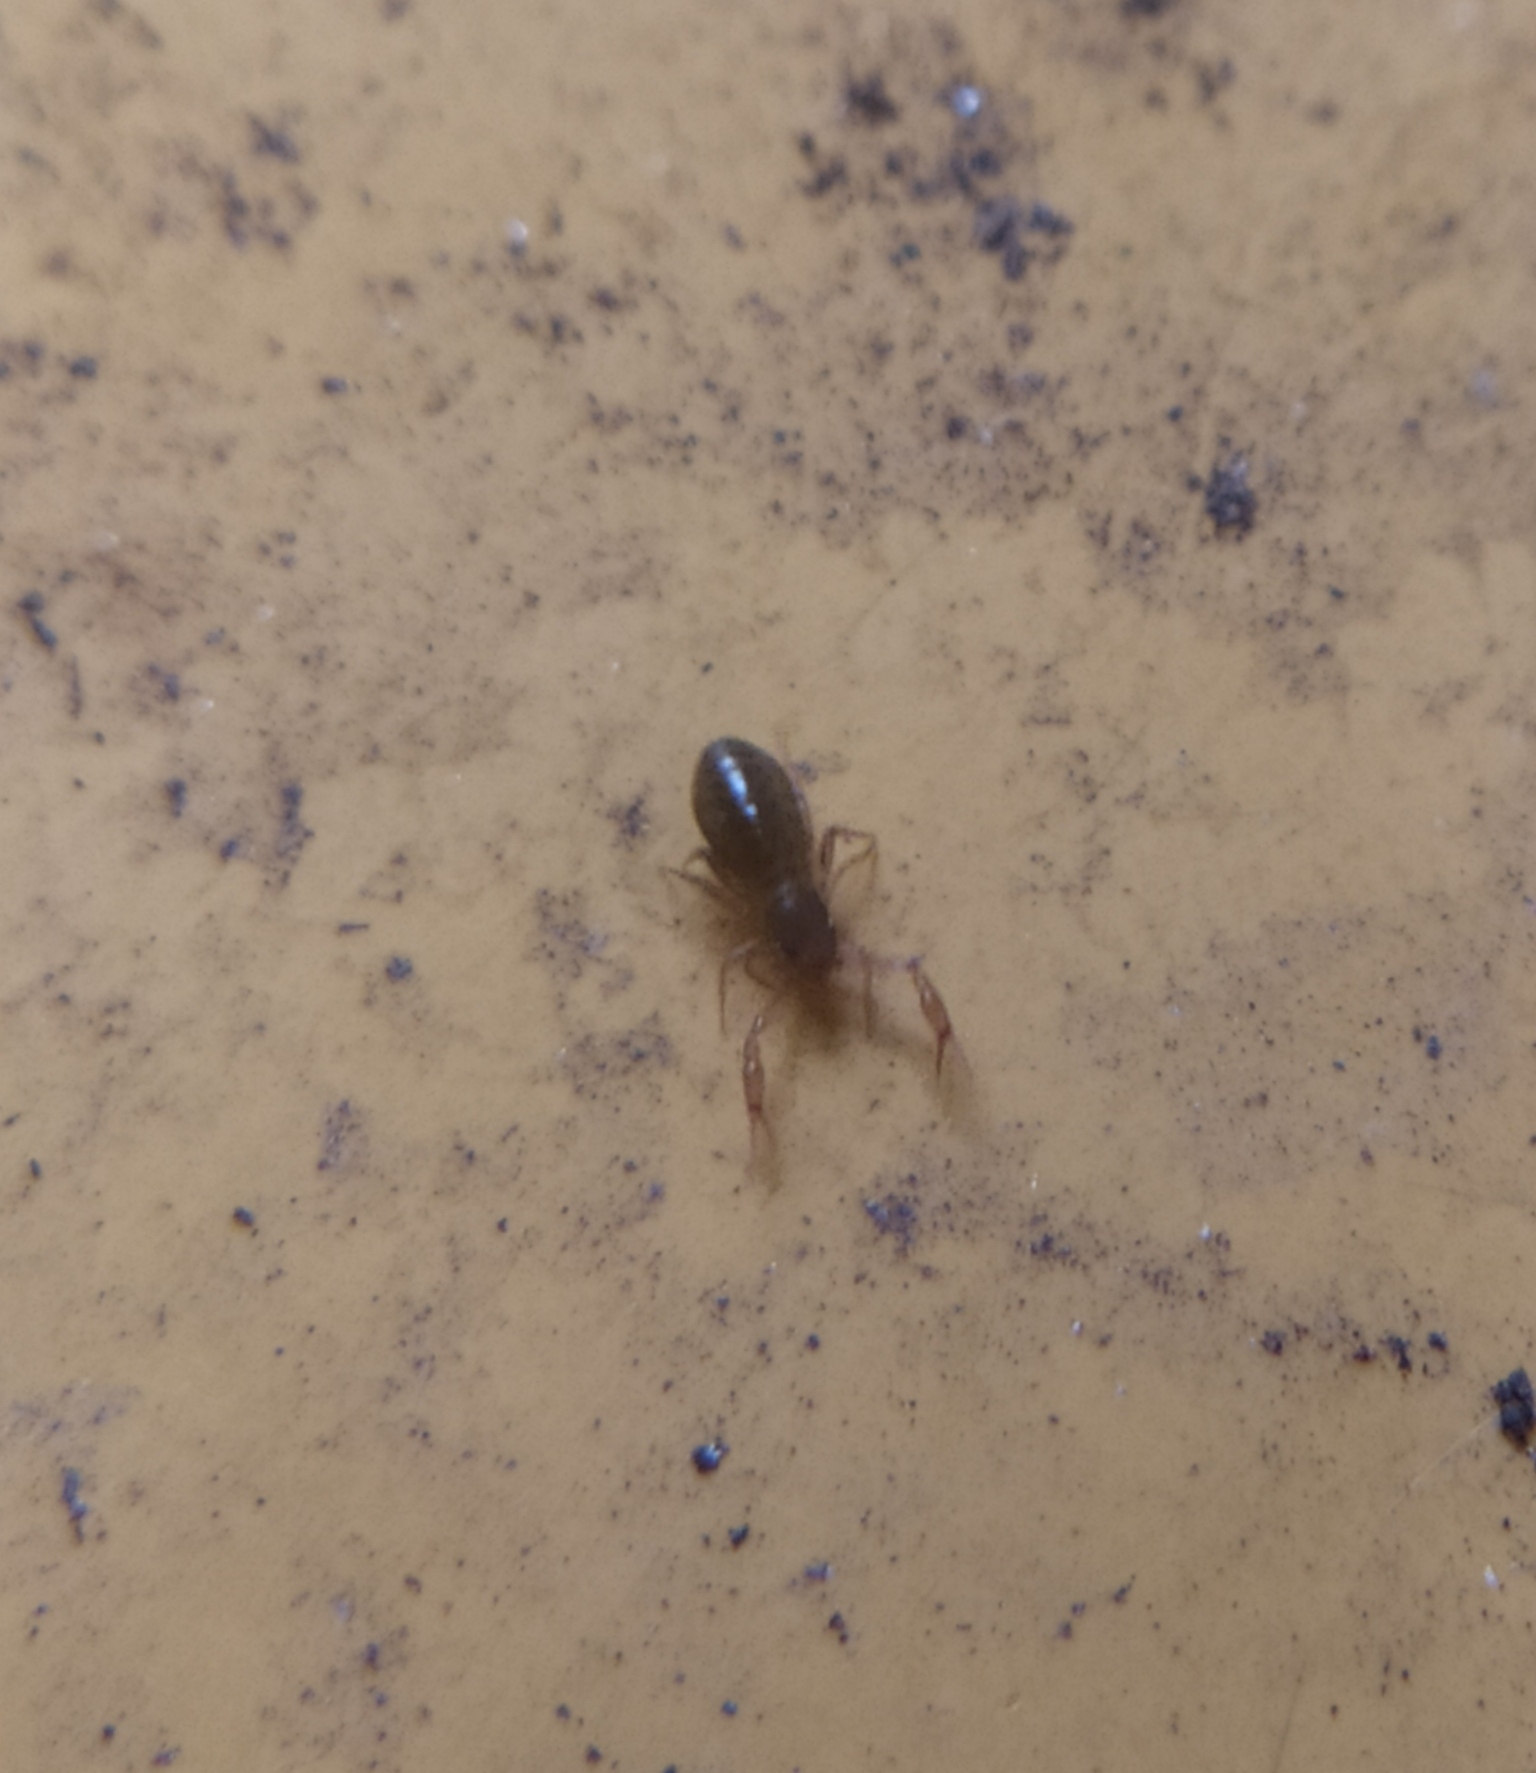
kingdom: Animalia
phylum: Arthropoda
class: Arachnida
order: Pseudoscorpiones
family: Chthoniidae
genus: Ephippiochthonius
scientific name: Ephippiochthonius tetrachelatus
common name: Pseudoscorpion
